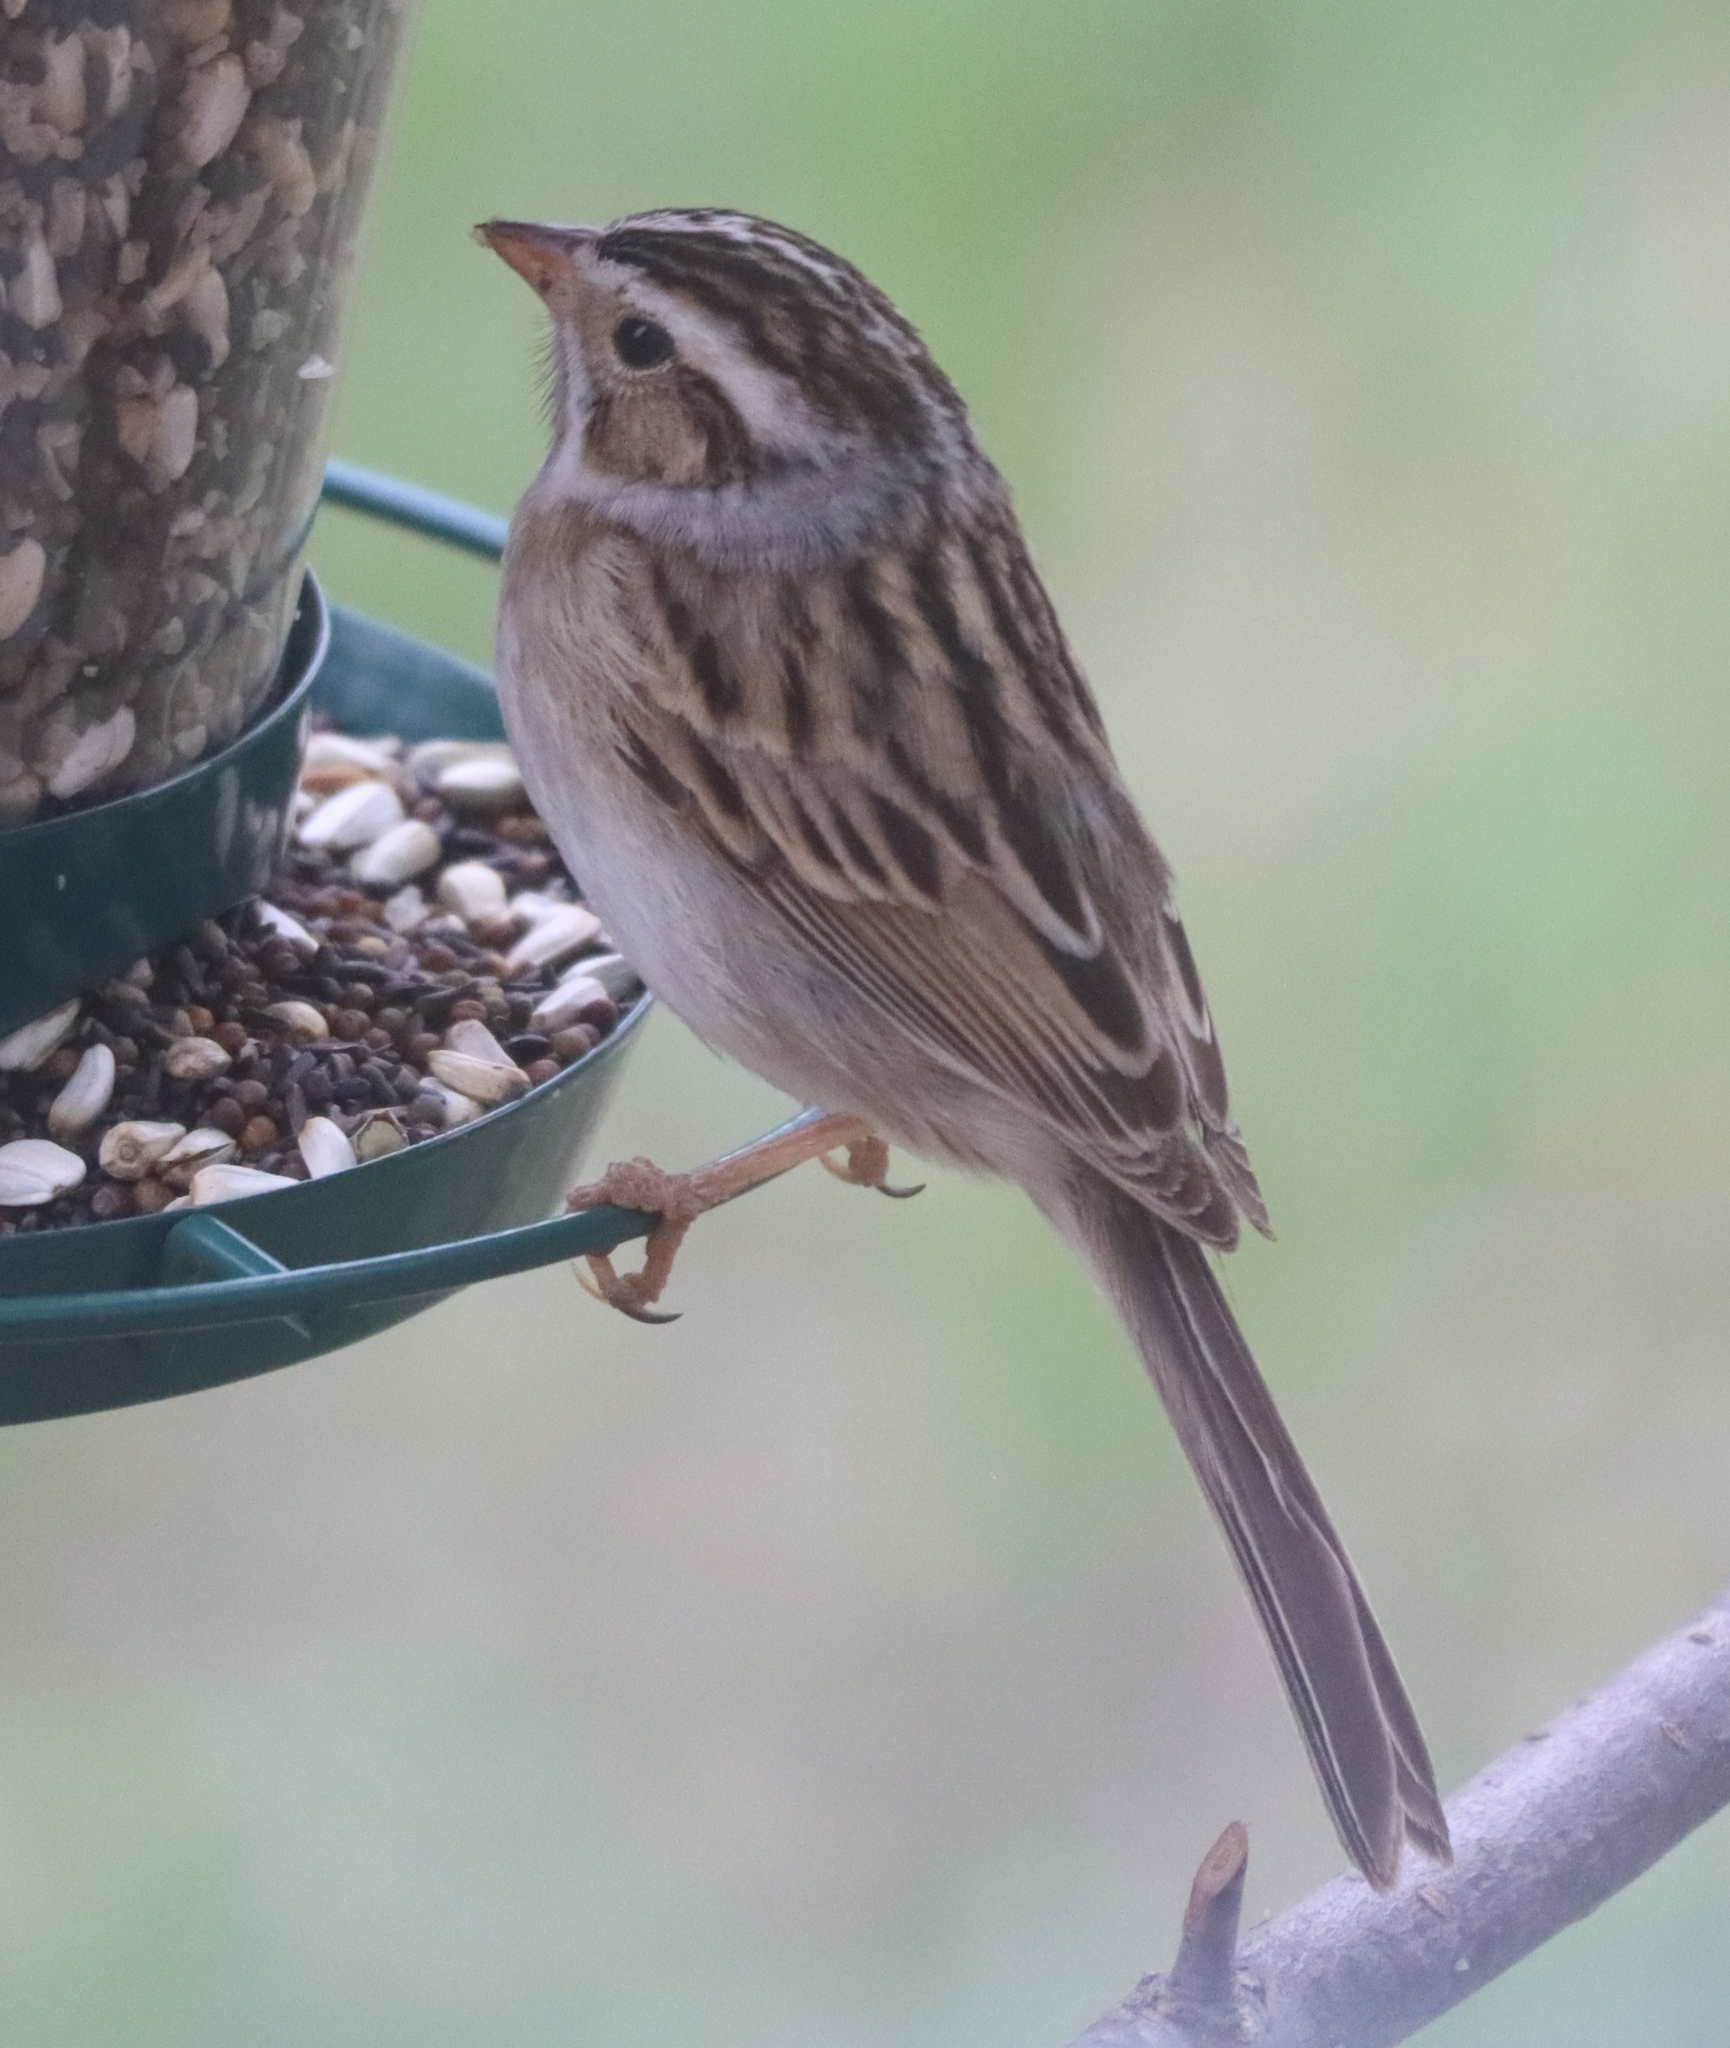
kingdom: Animalia
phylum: Chordata
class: Aves
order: Passeriformes
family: Passerellidae
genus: Spizella
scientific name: Spizella pallida
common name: Clay-colored sparrow
